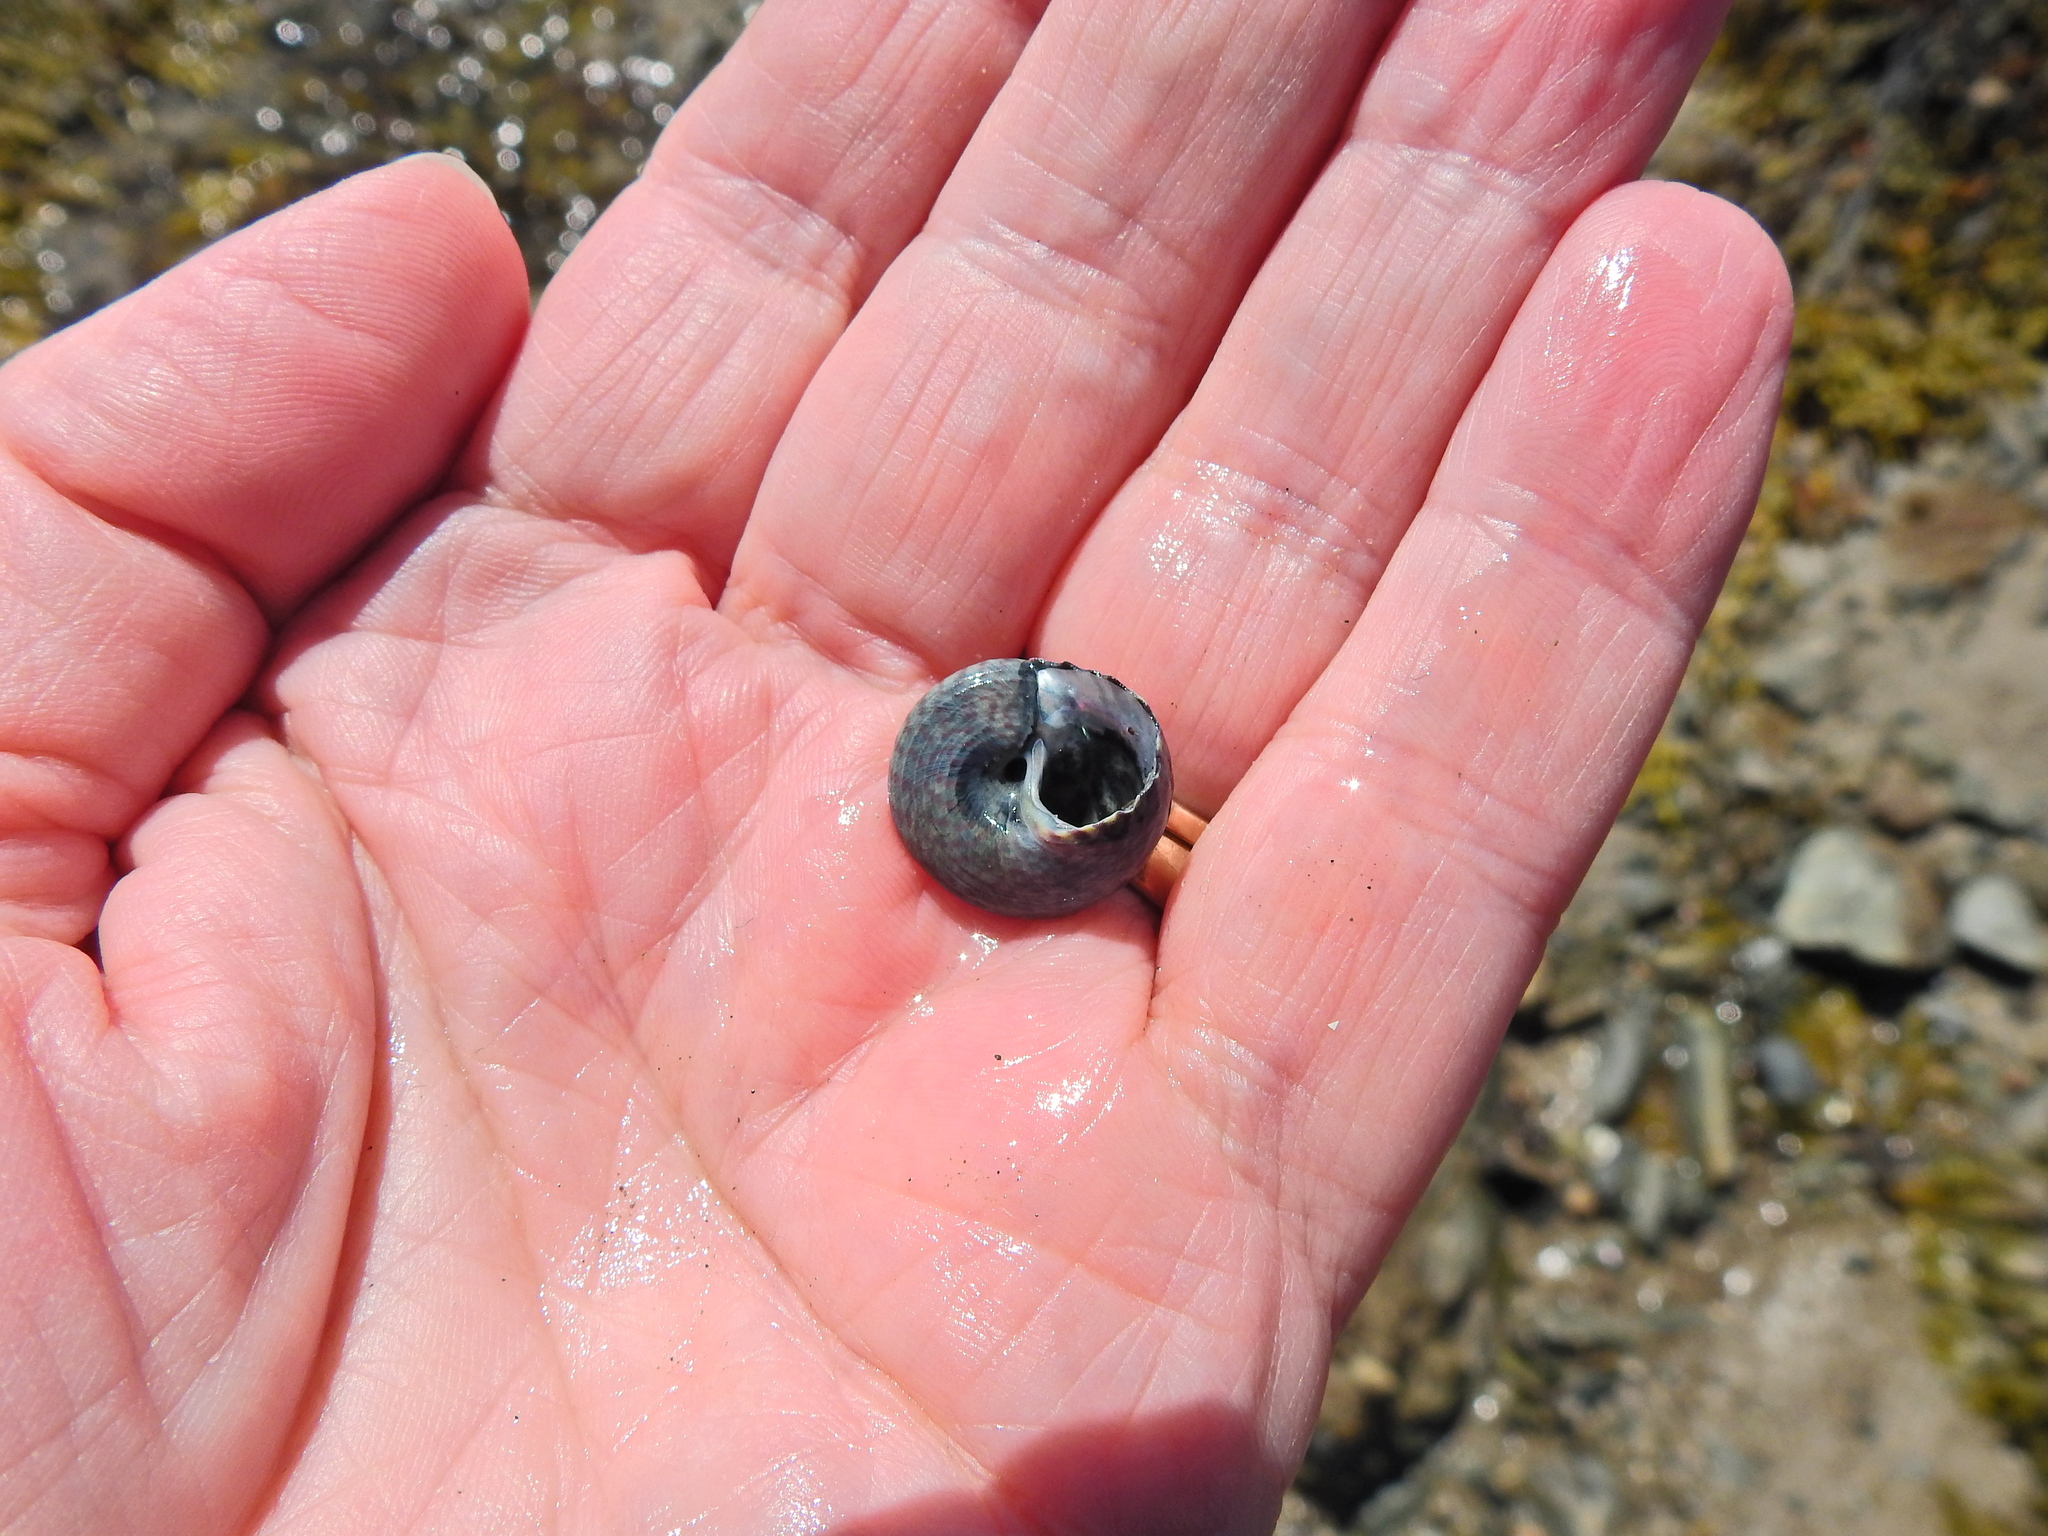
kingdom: Animalia
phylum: Mollusca
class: Gastropoda
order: Trochida
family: Trochidae
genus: Steromphala
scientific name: Steromphala umbilicalis
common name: Flat top shell
